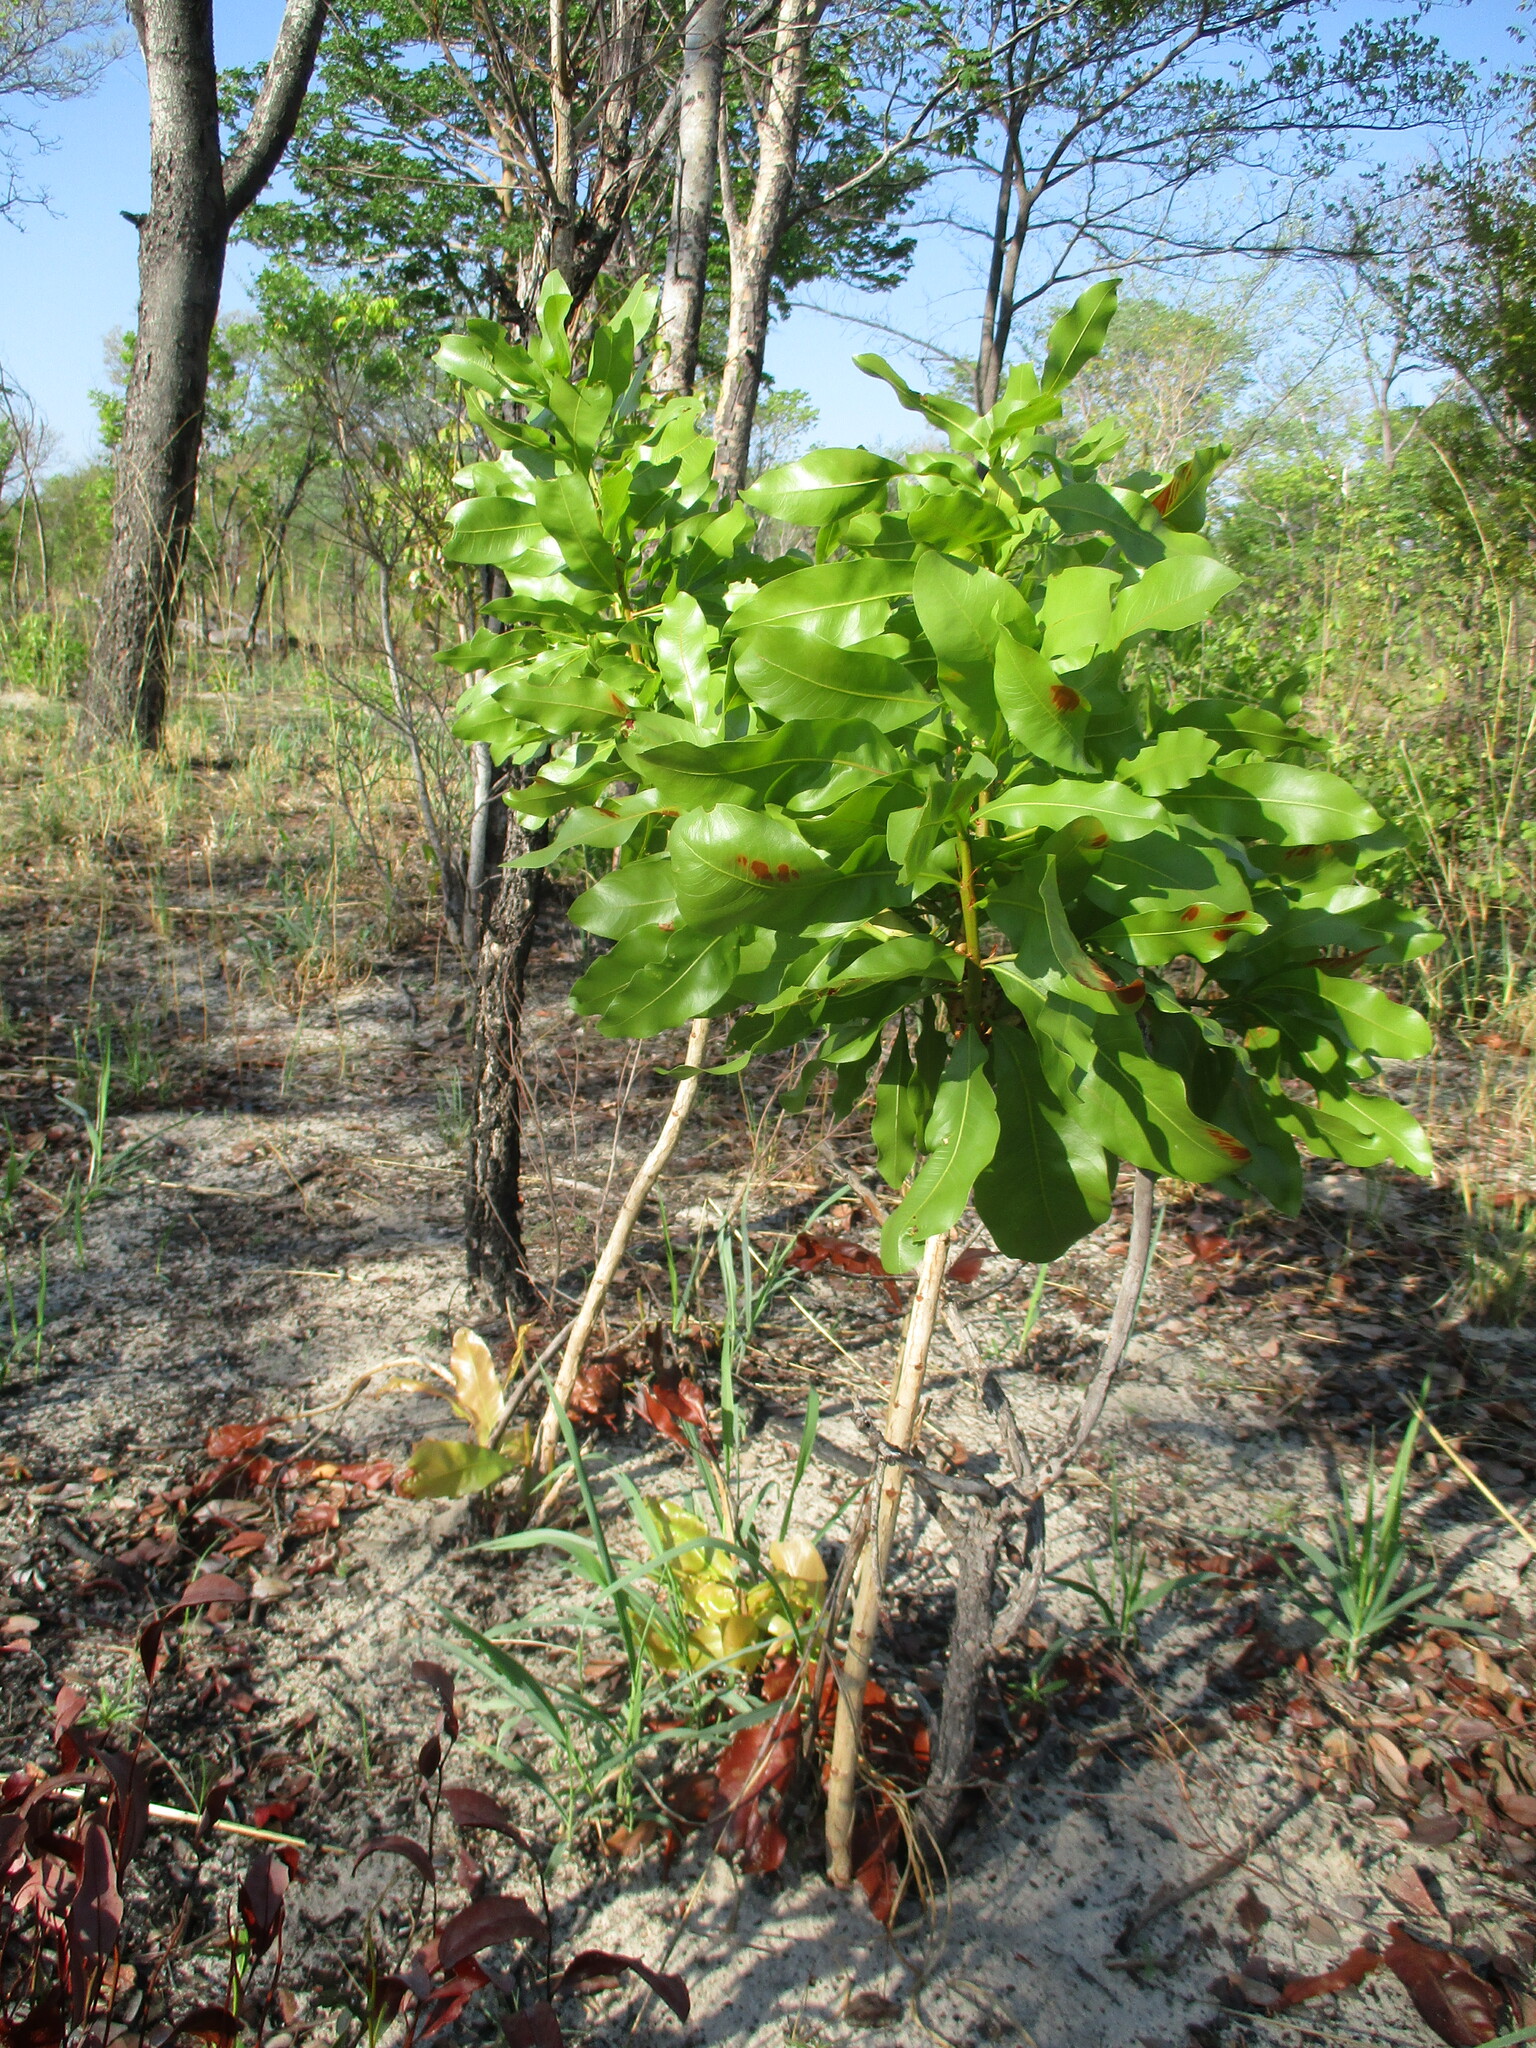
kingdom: Plantae
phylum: Tracheophyta
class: Magnoliopsida
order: Malpighiales
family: Ochnaceae
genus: Ochna
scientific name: Ochna pulchra
